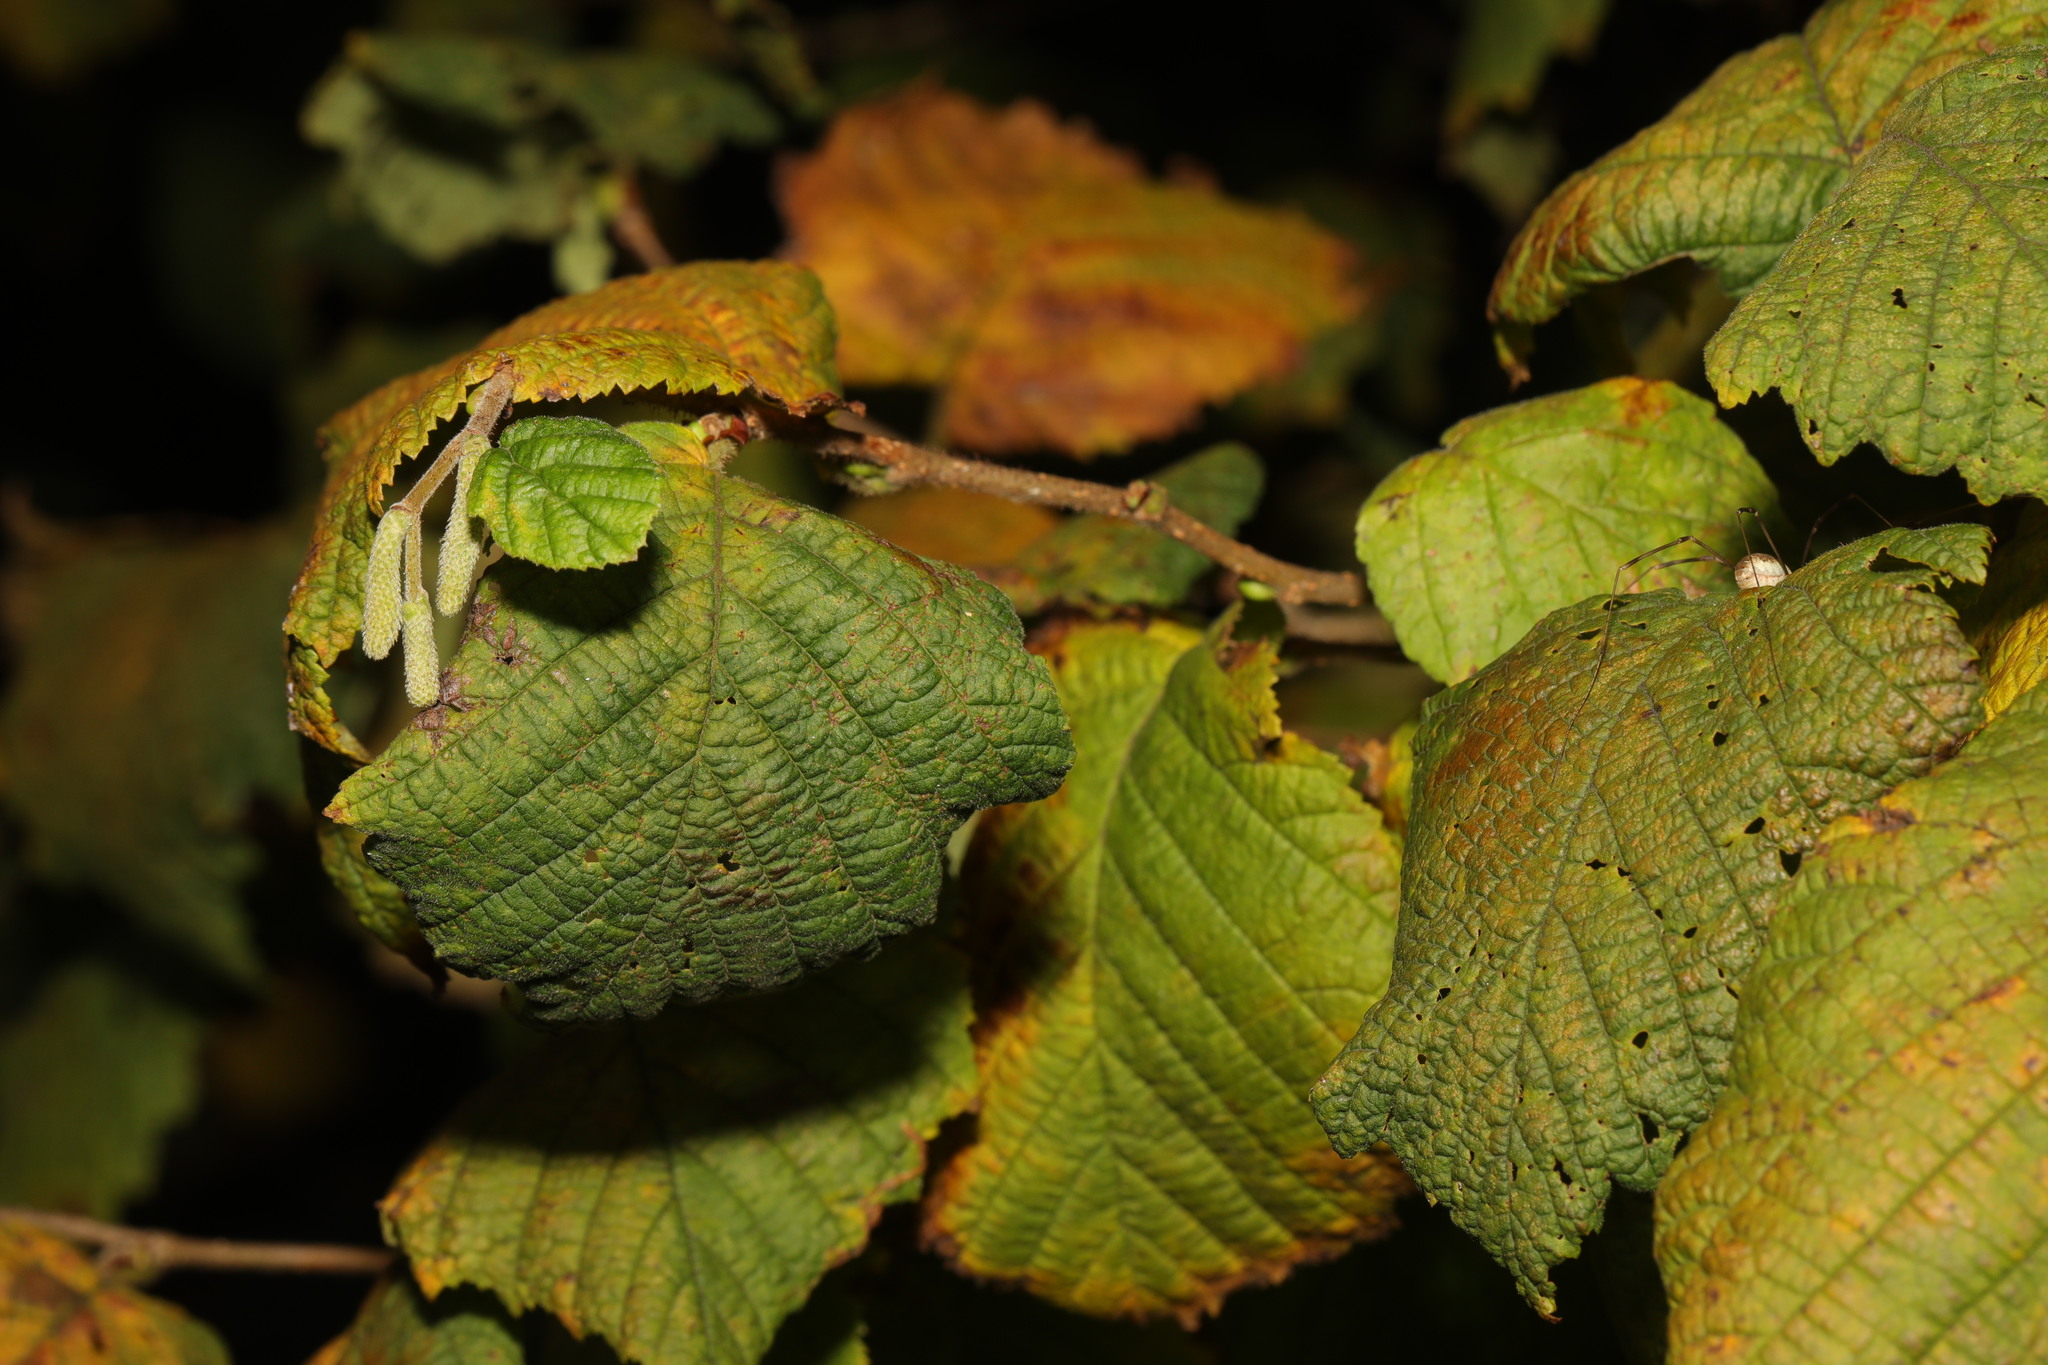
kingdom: Plantae
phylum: Tracheophyta
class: Magnoliopsida
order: Fagales
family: Betulaceae
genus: Corylus
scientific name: Corylus avellana
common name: European hazel
